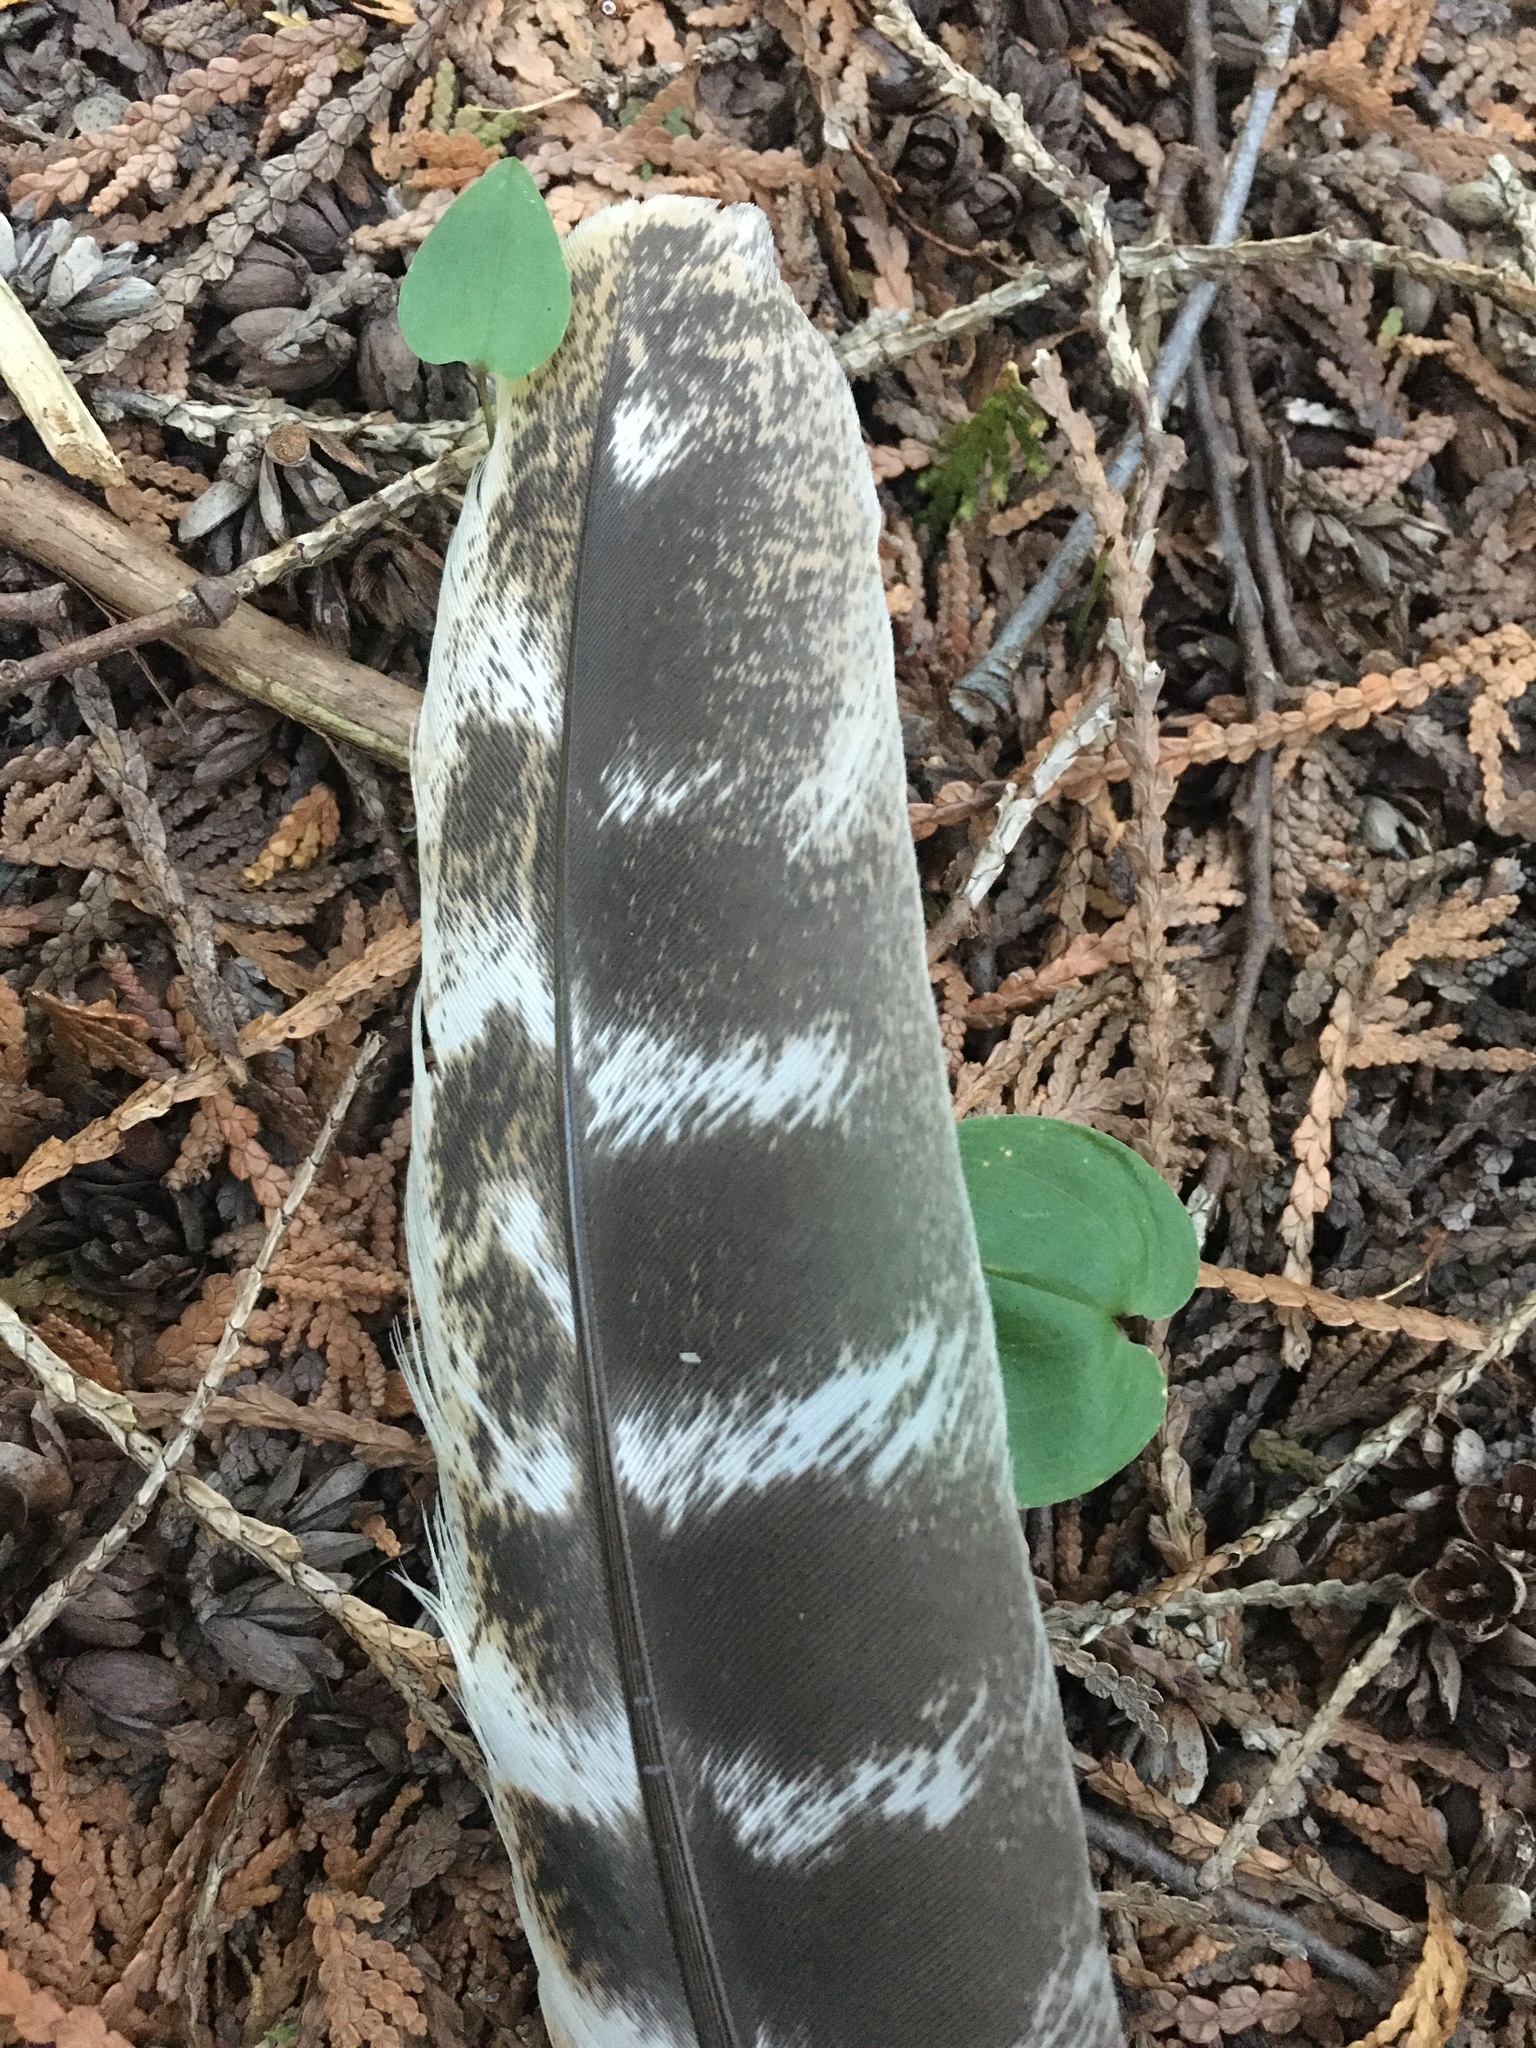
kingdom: Animalia
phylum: Chordata
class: Aves
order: Galliformes
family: Phasianidae
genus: Meleagris
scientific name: Meleagris gallopavo
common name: Wild turkey
